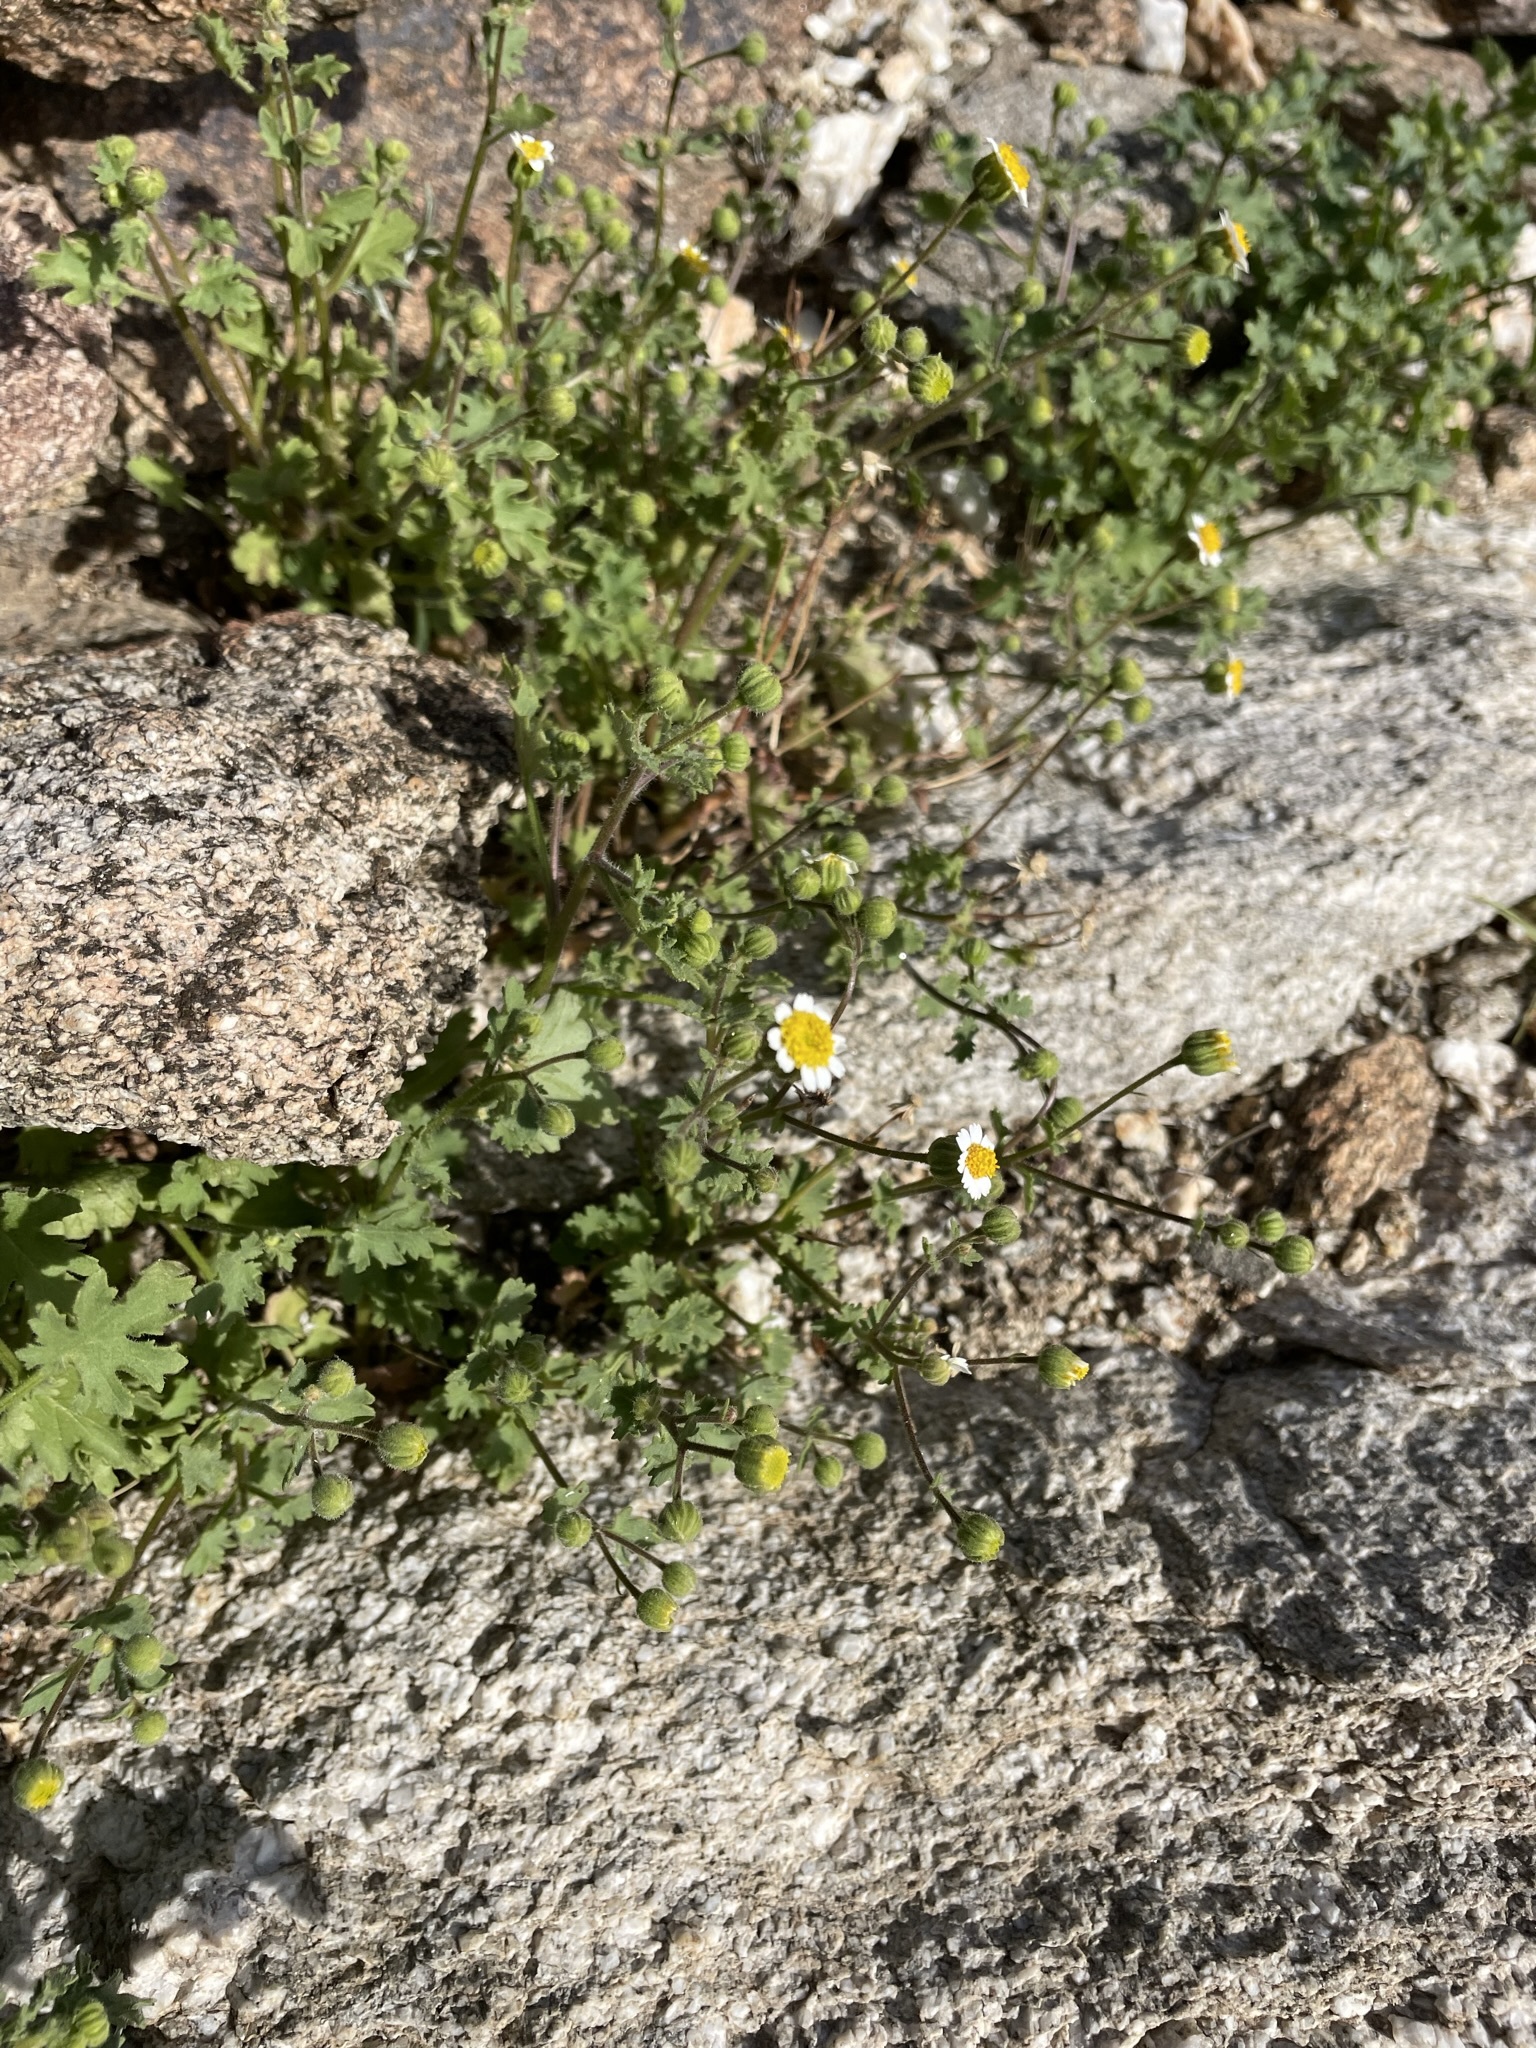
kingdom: Plantae
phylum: Tracheophyta
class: Magnoliopsida
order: Asterales
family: Asteraceae
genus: Laphamia
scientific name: Laphamia emoryi
